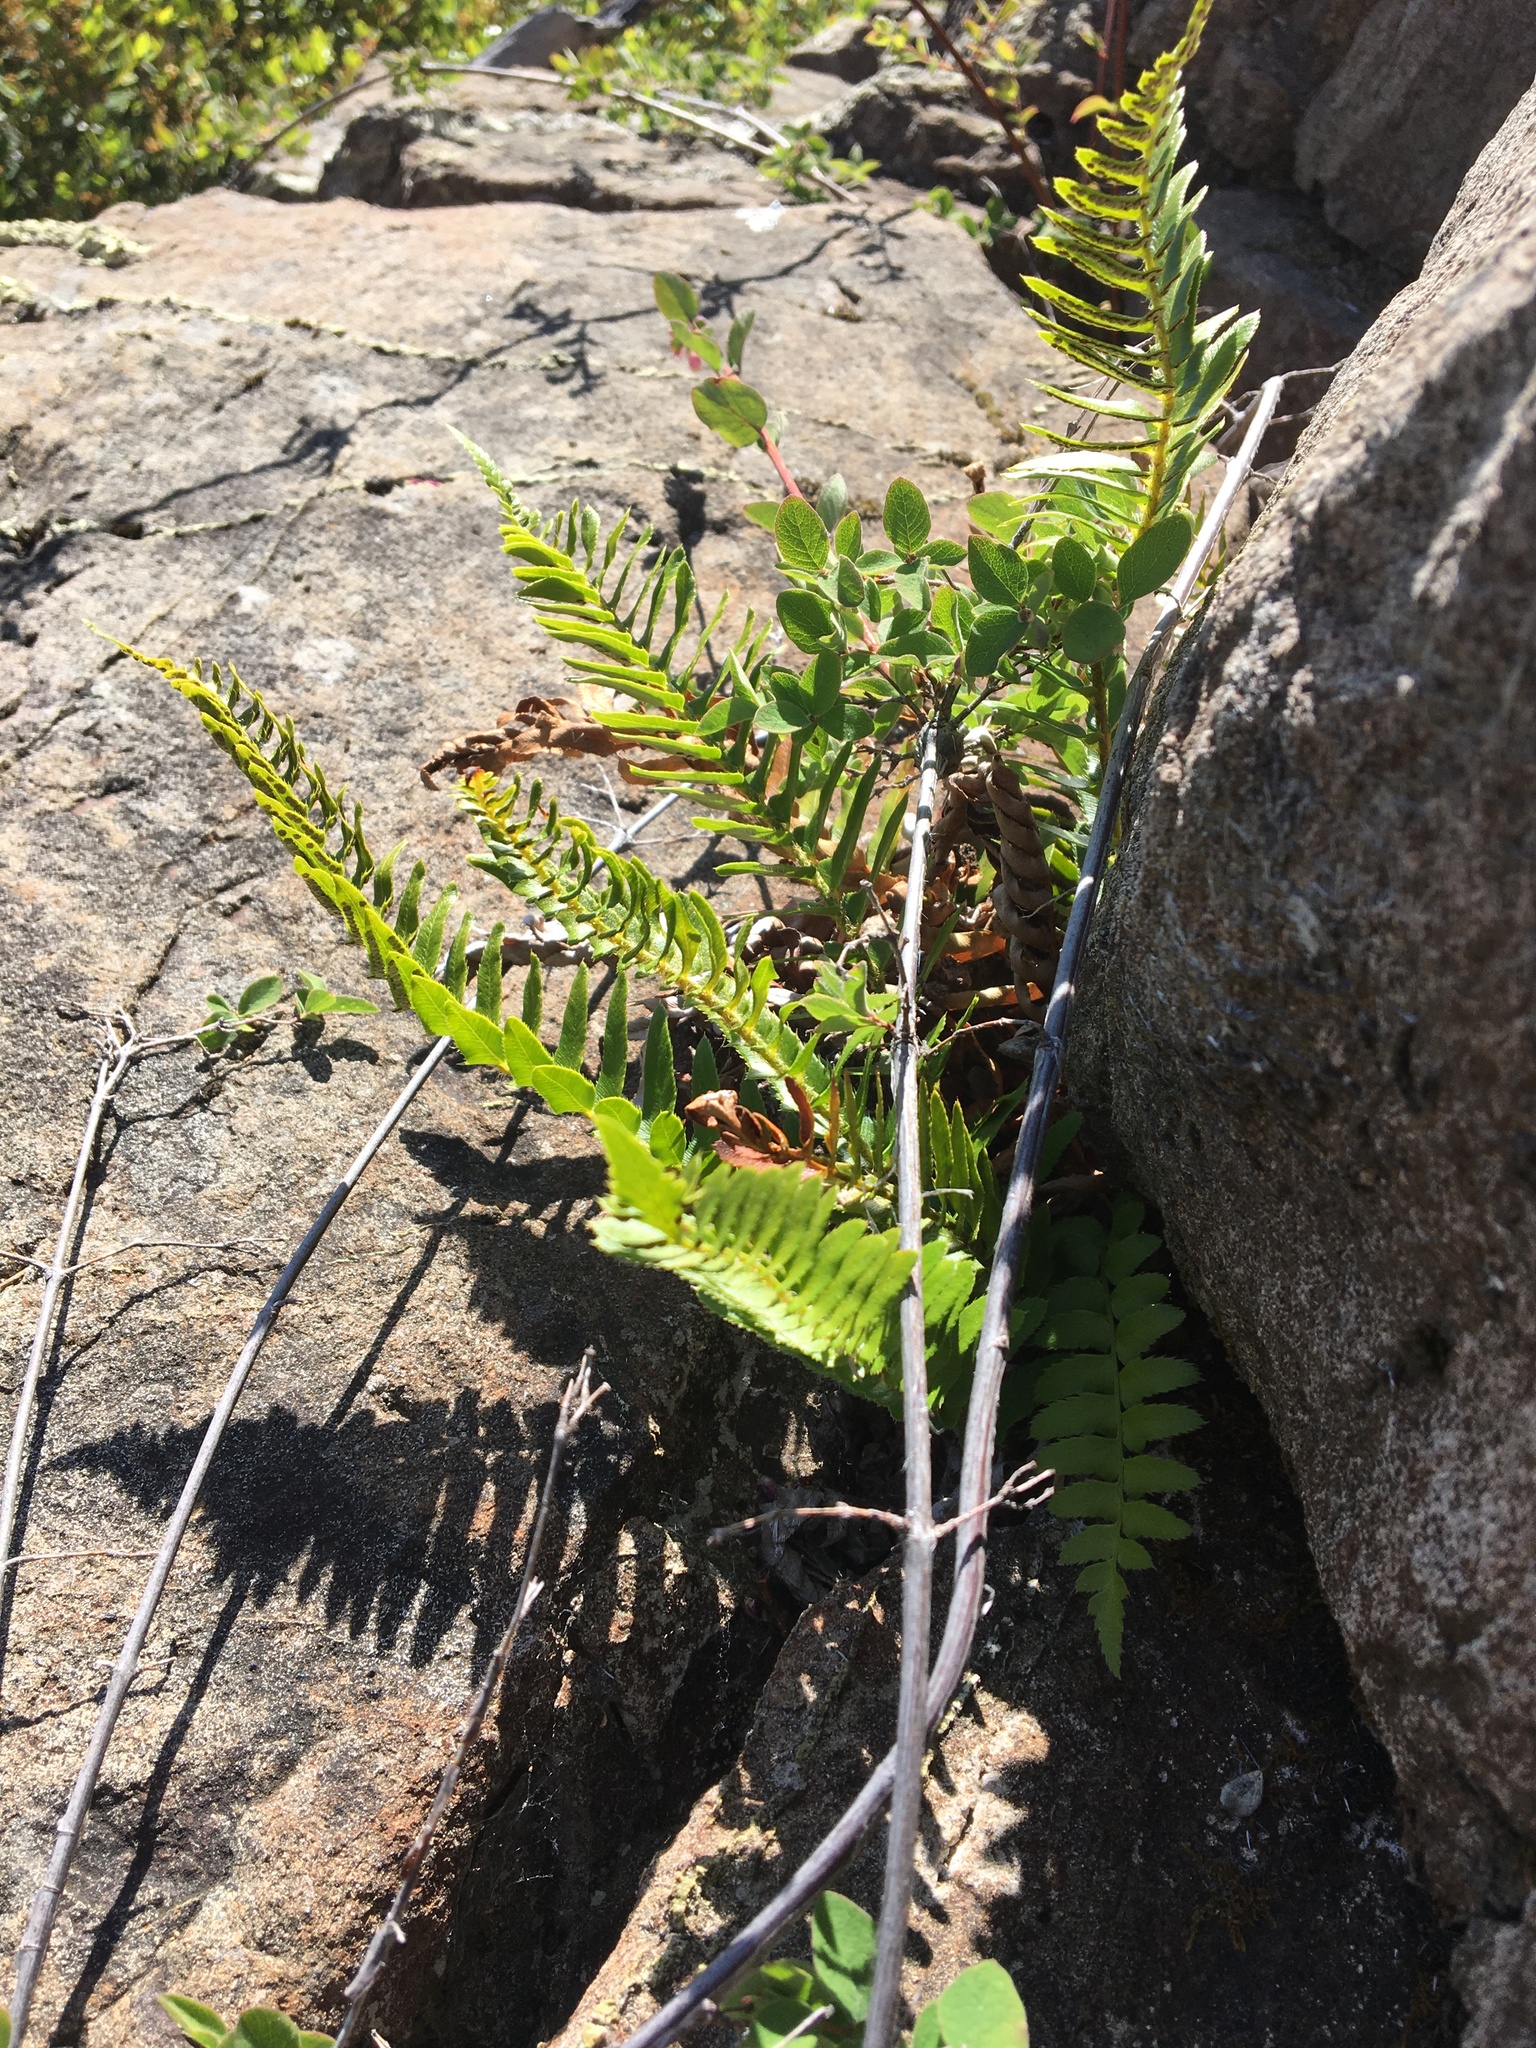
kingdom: Plantae
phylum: Tracheophyta
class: Polypodiopsida
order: Polypodiales
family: Dryopteridaceae
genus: Polystichum
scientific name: Polystichum imbricans
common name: Dwarf western sword fern
